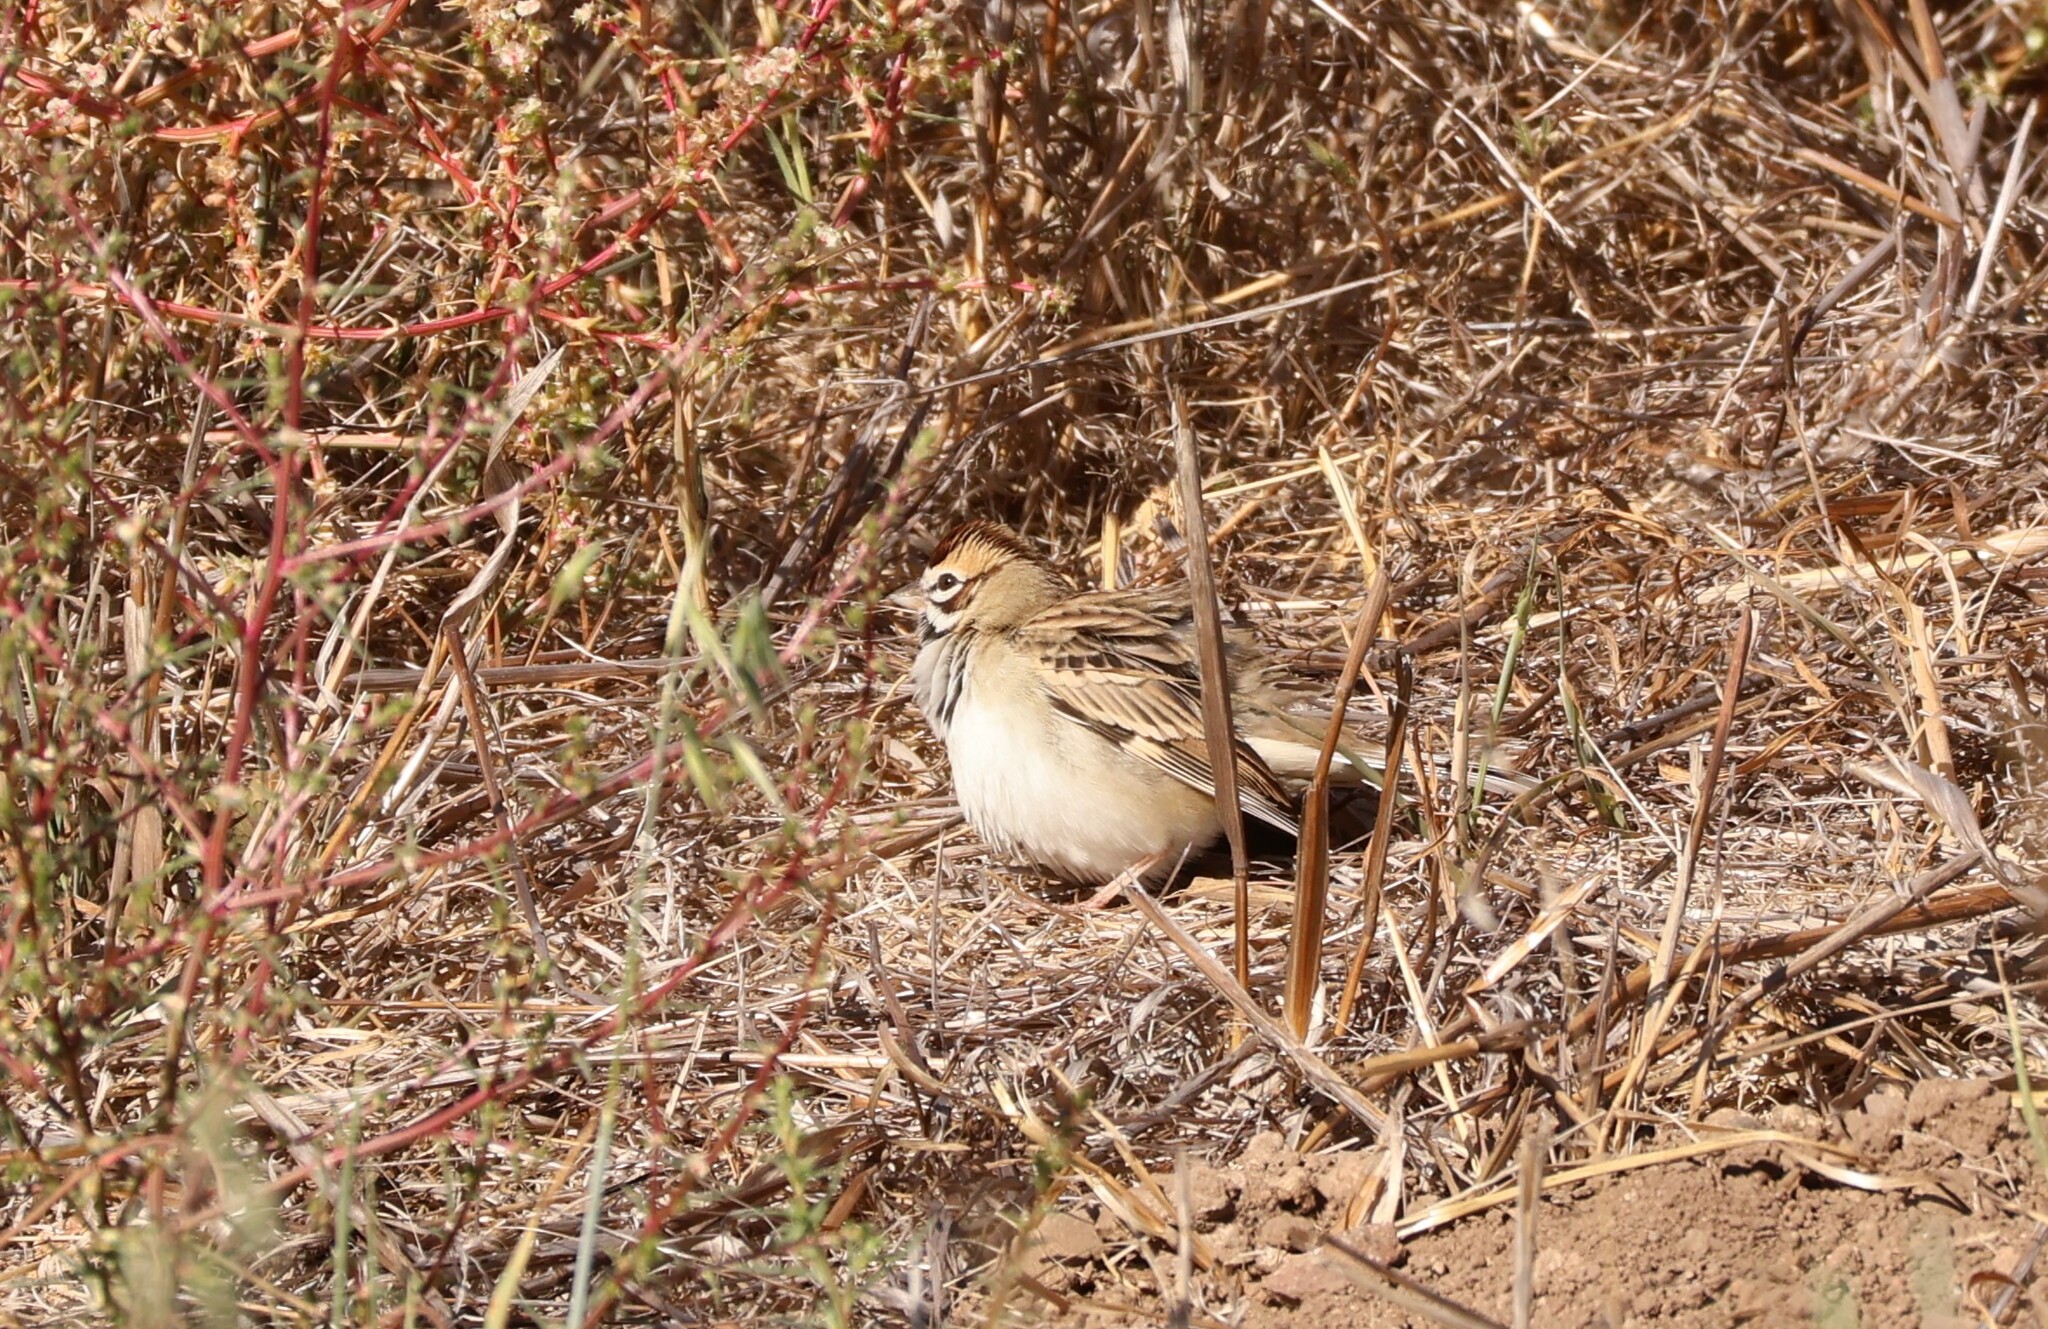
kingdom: Animalia
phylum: Chordata
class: Aves
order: Passeriformes
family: Passerellidae
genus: Chondestes
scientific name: Chondestes grammacus
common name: Lark sparrow
